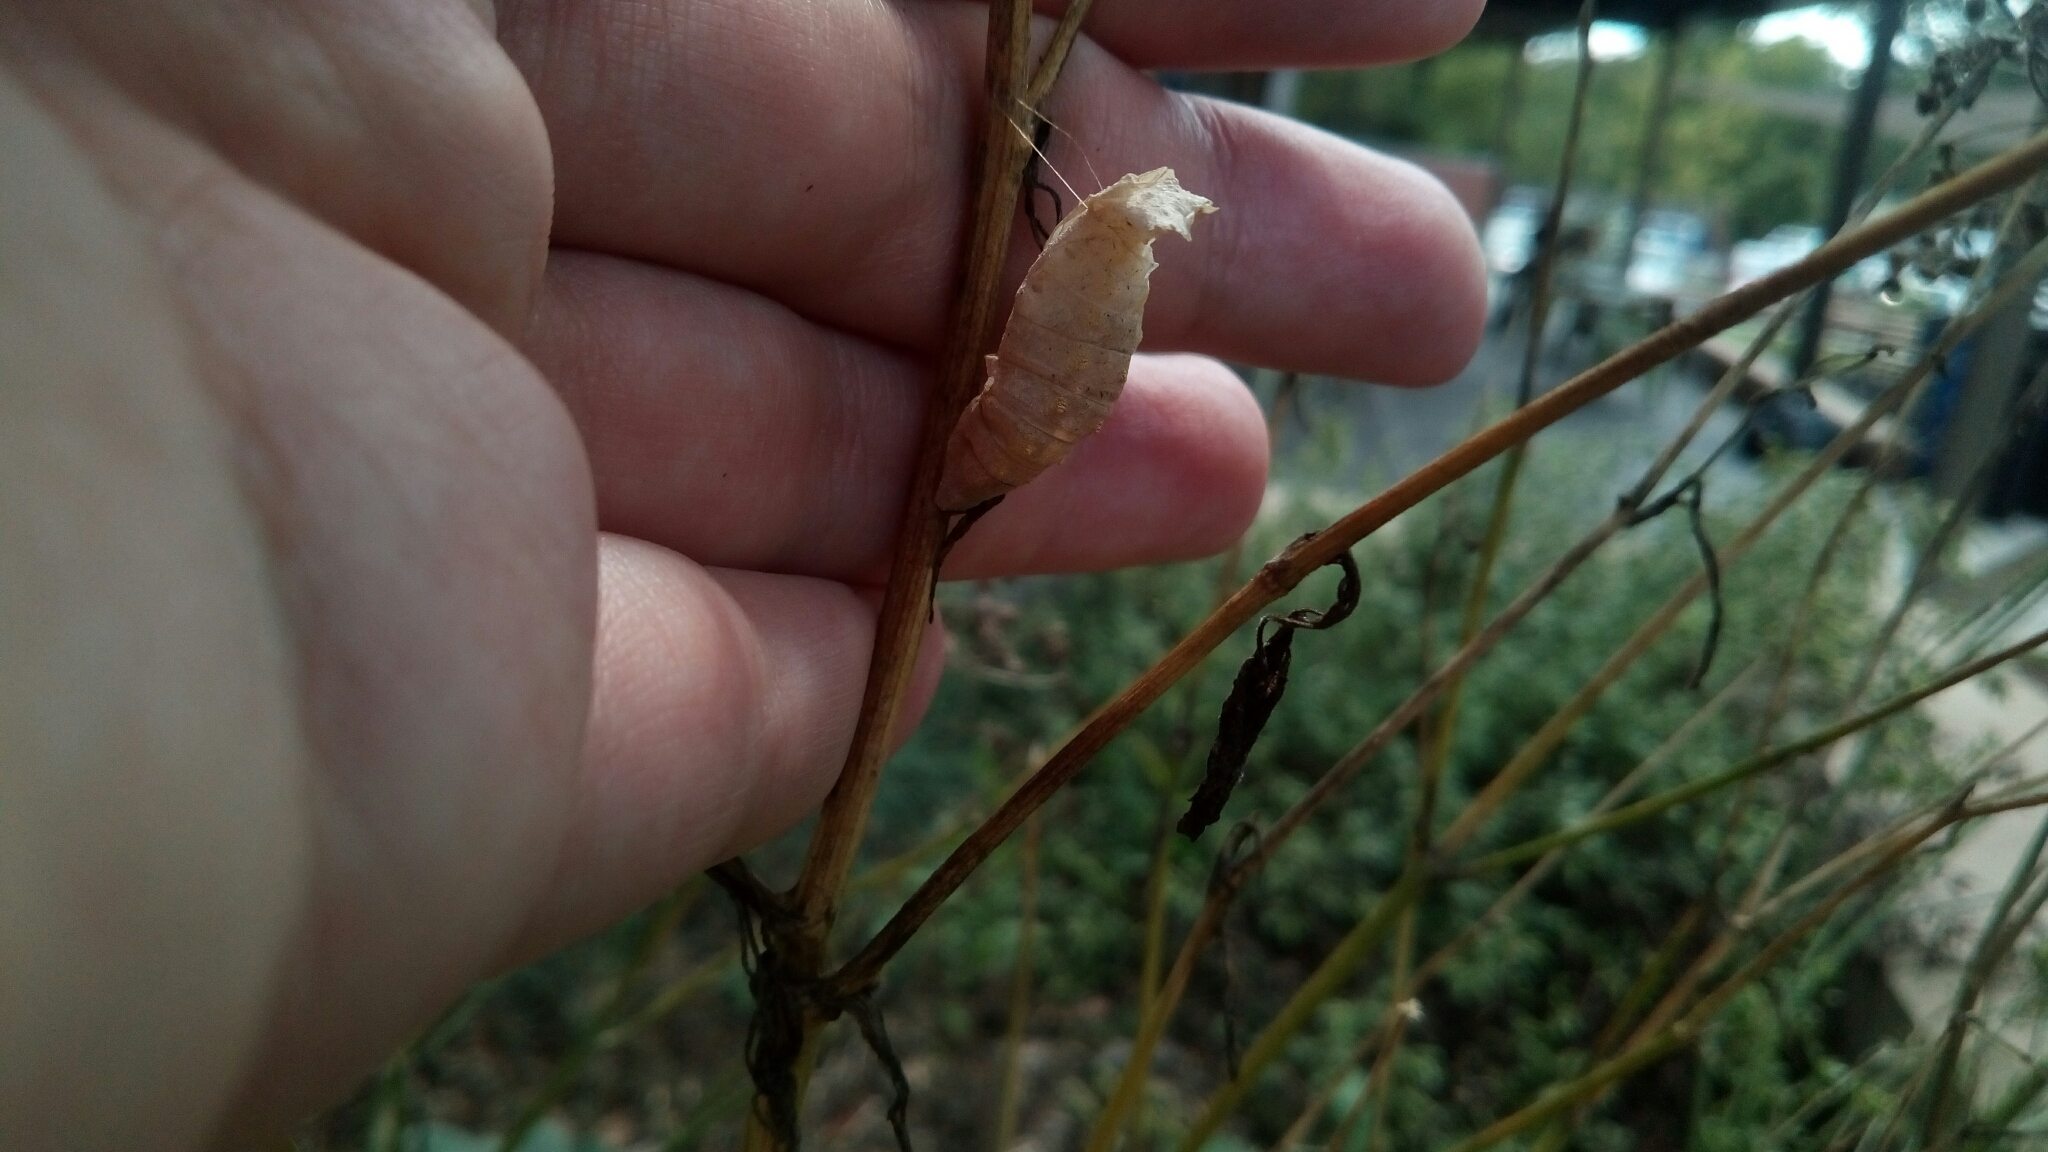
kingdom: Animalia
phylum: Arthropoda
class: Insecta
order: Lepidoptera
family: Papilionidae
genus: Papilio
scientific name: Papilio polyxenes
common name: Black swallowtail
